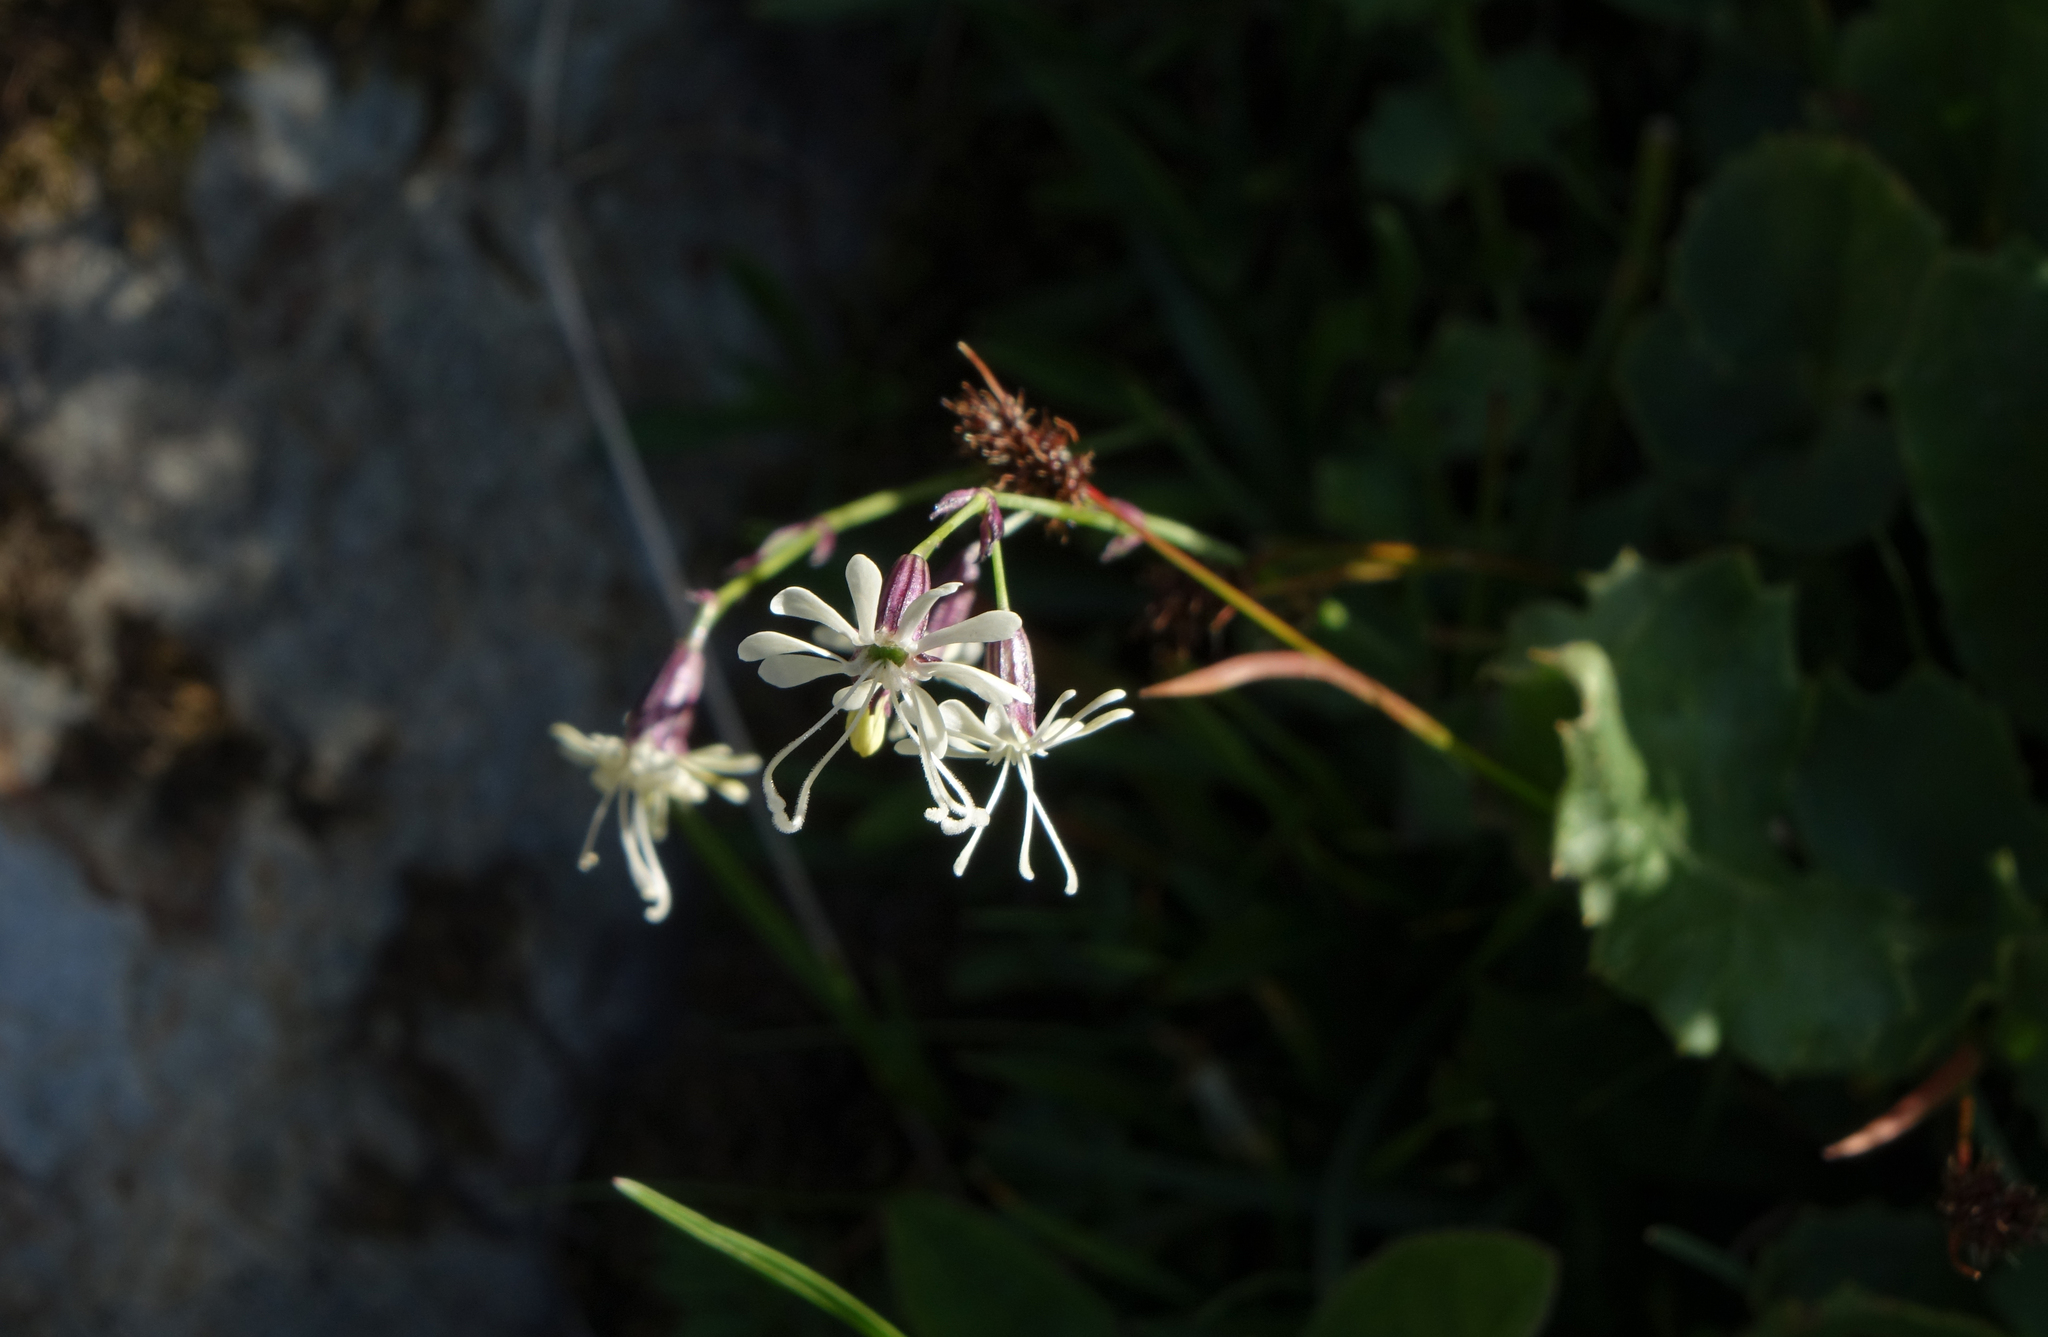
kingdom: Plantae
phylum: Tracheophyta
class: Magnoliopsida
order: Caryophyllales
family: Caryophyllaceae
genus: Silene
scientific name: Silene saxatilis
